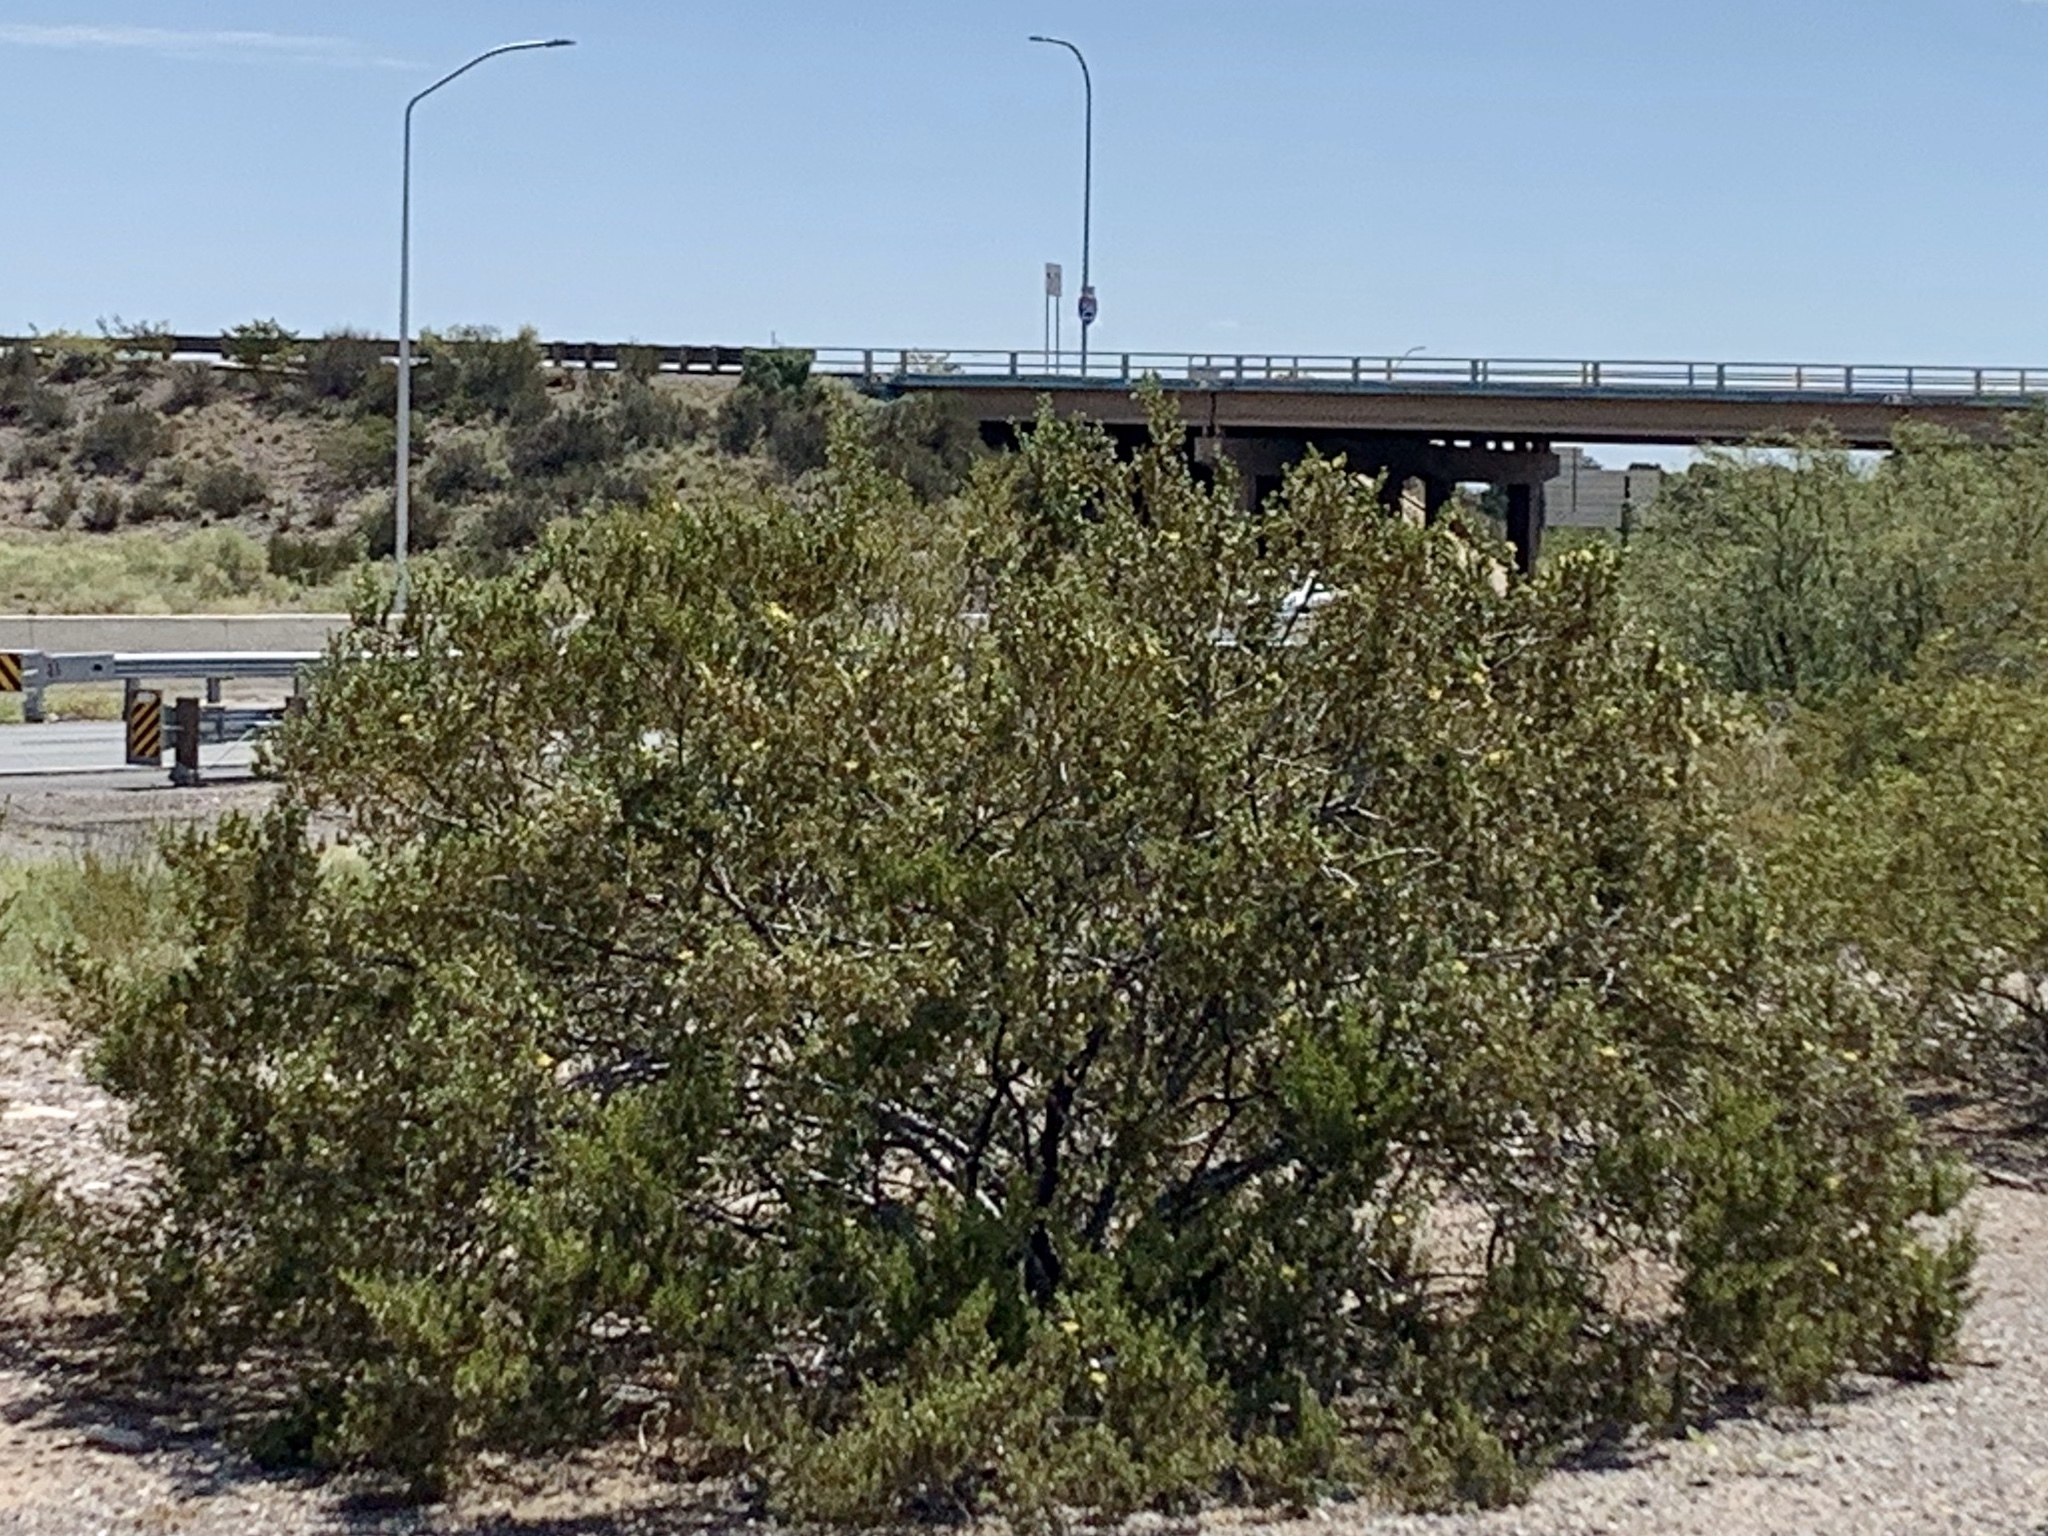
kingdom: Plantae
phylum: Tracheophyta
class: Magnoliopsida
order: Zygophyllales
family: Zygophyllaceae
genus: Larrea
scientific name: Larrea tridentata
